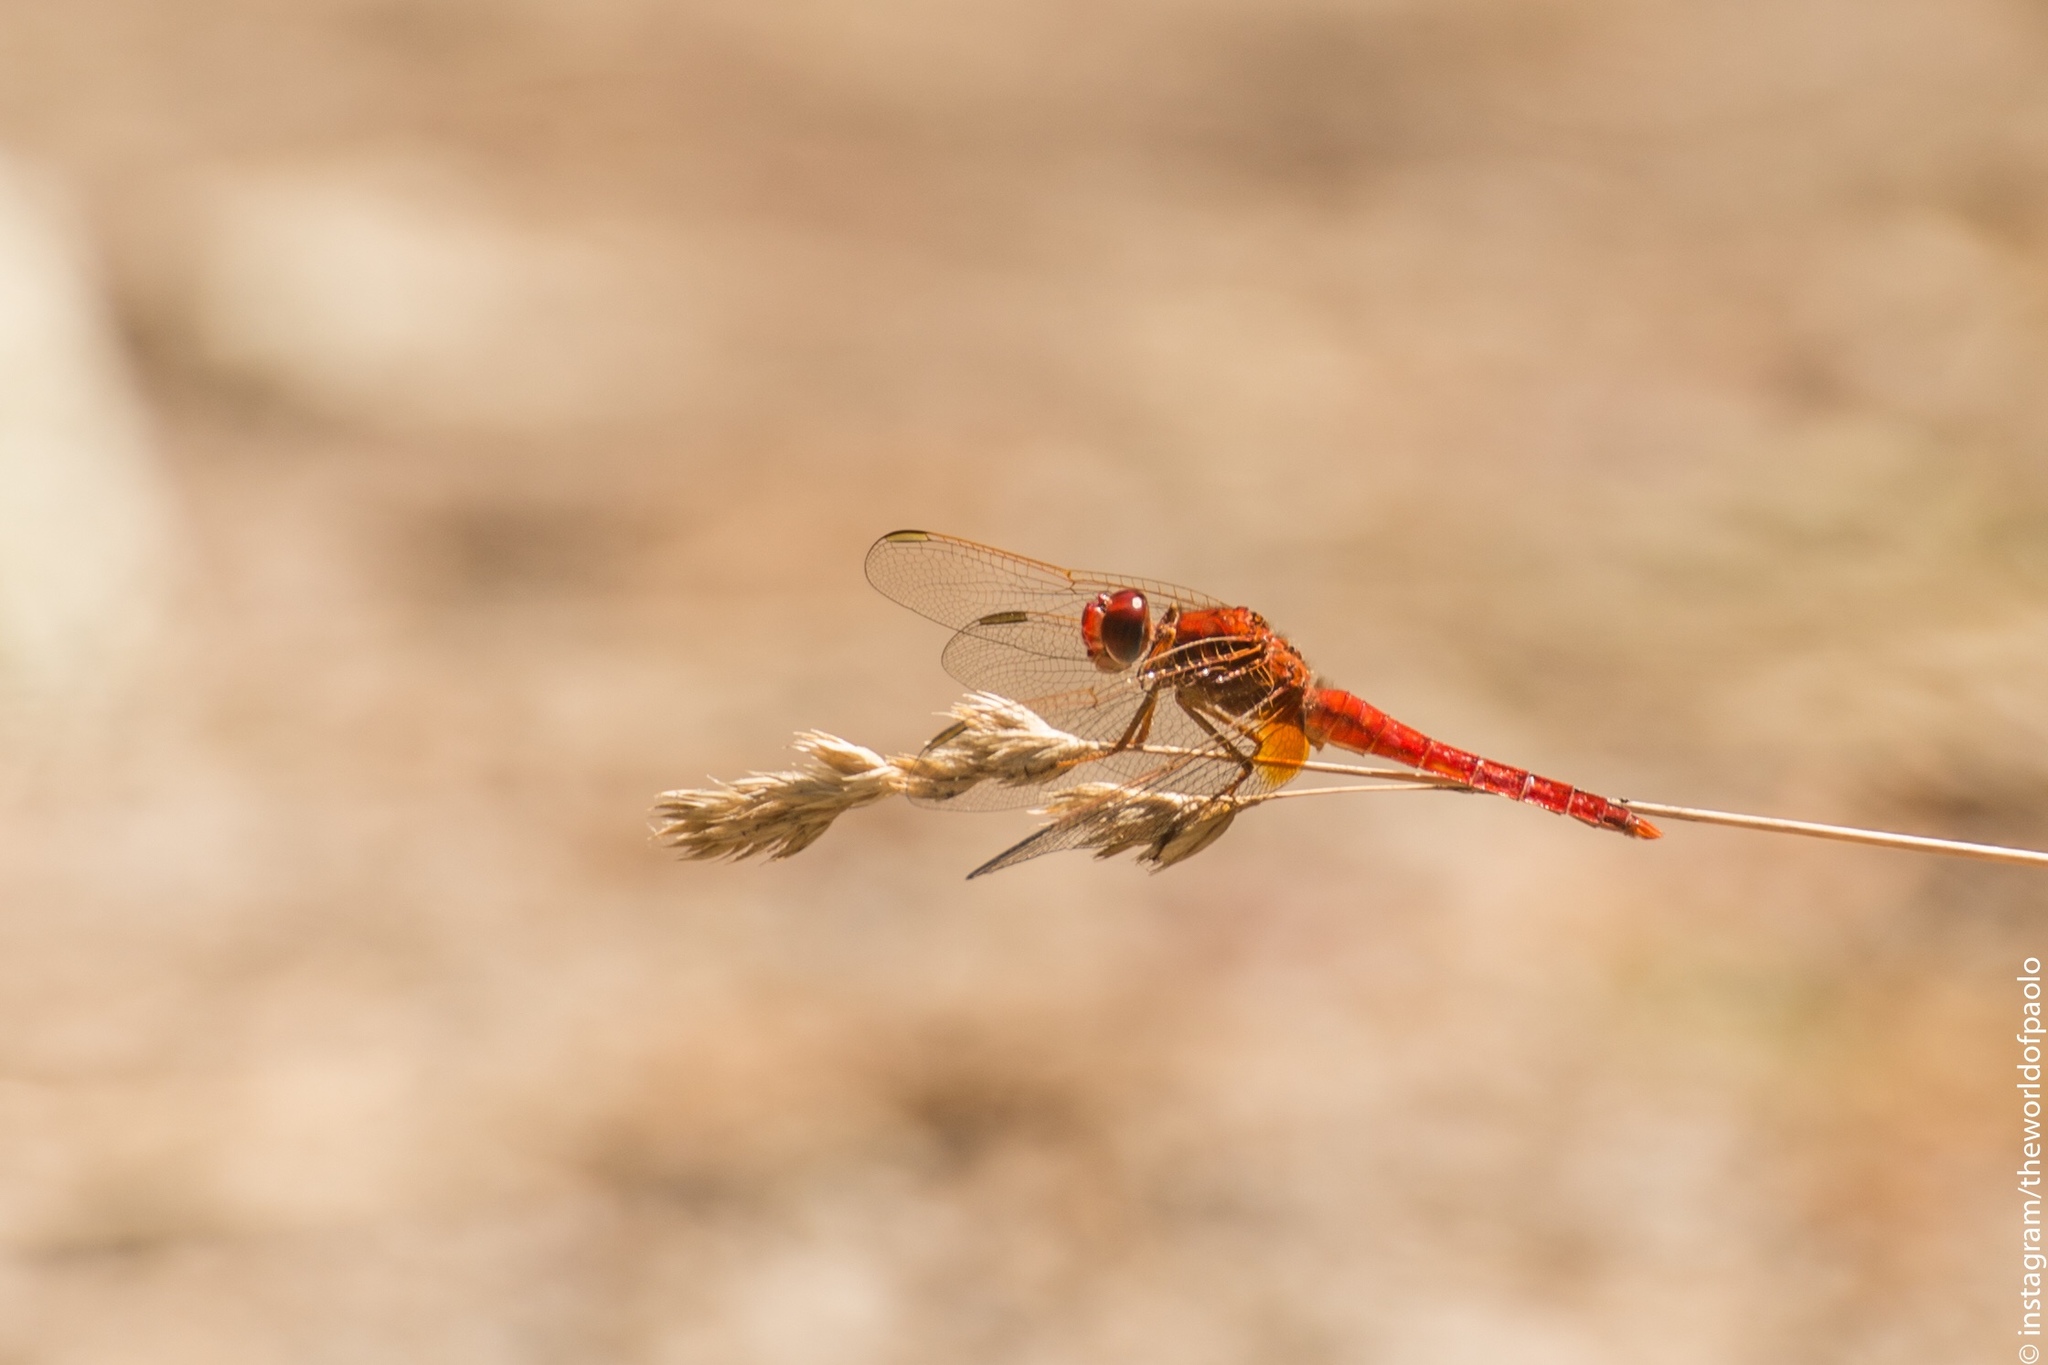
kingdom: Animalia
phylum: Arthropoda
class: Insecta
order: Odonata
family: Libellulidae
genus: Crocothemis
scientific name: Crocothemis erythraea
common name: Scarlet dragonfly
